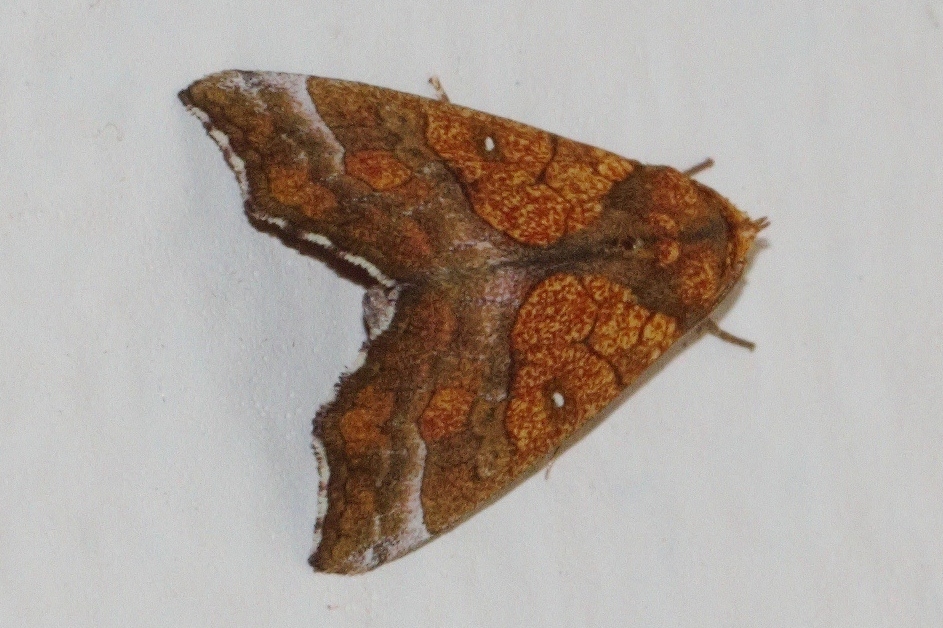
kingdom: Animalia
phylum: Arthropoda
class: Insecta
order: Lepidoptera
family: Erebidae
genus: Anomis
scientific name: Anomis flava
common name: Moth
